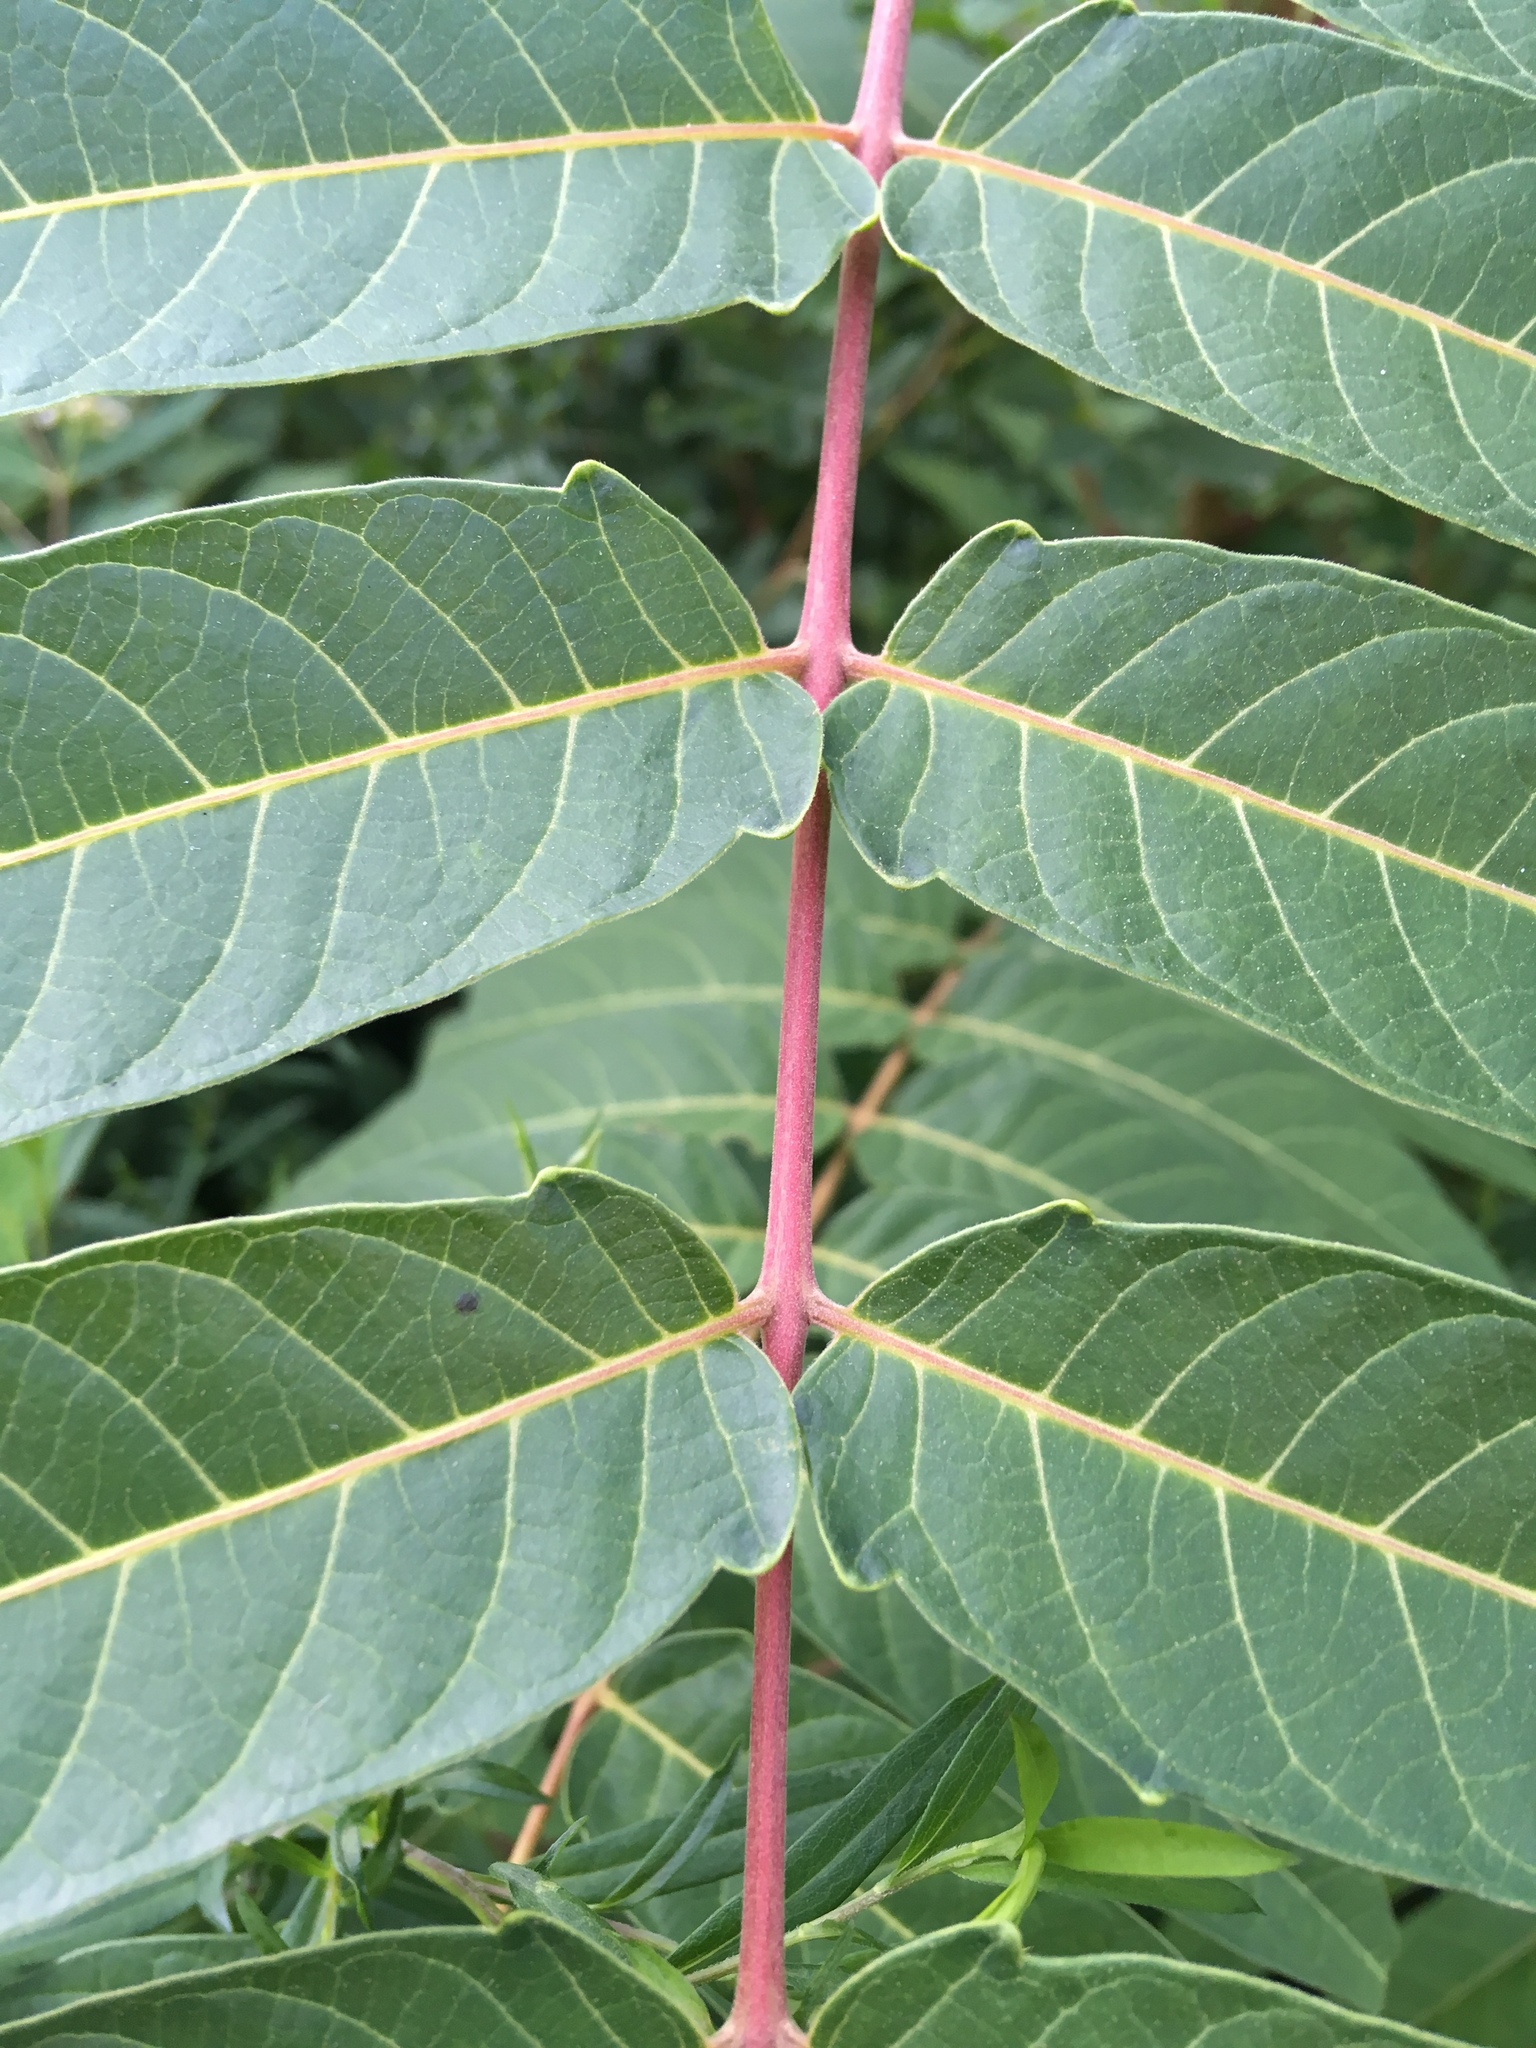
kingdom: Plantae
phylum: Tracheophyta
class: Magnoliopsida
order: Sapindales
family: Simaroubaceae
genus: Ailanthus
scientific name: Ailanthus altissima
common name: Tree-of-heaven
